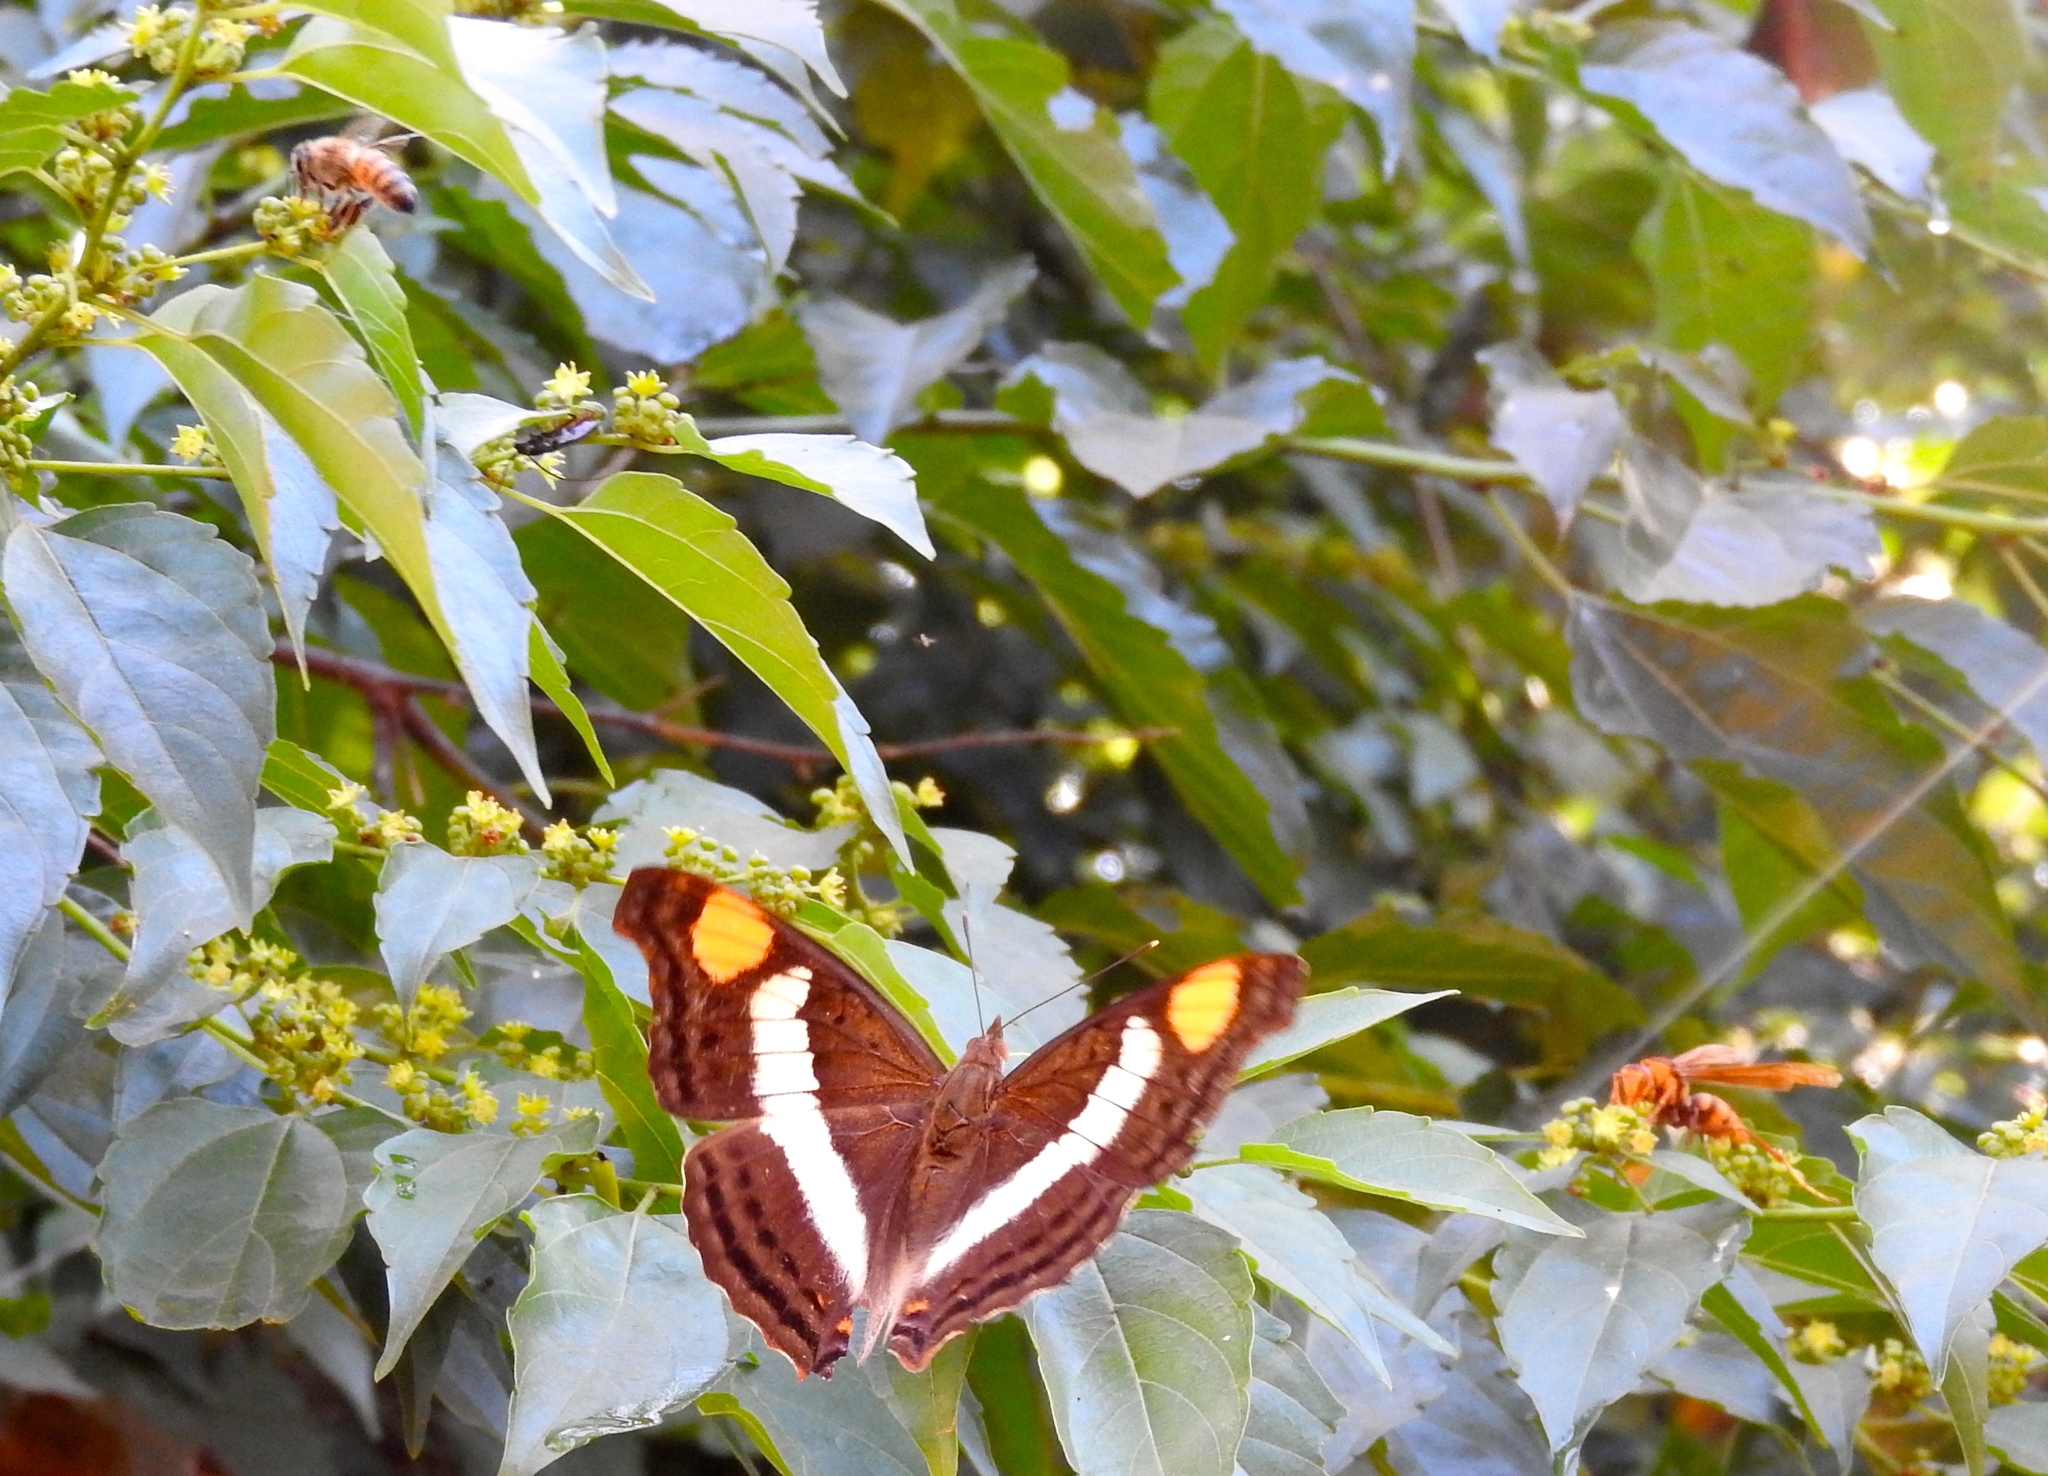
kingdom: Animalia
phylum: Arthropoda
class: Insecta
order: Lepidoptera
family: Nymphalidae
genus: Doxocopa
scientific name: Doxocopa
